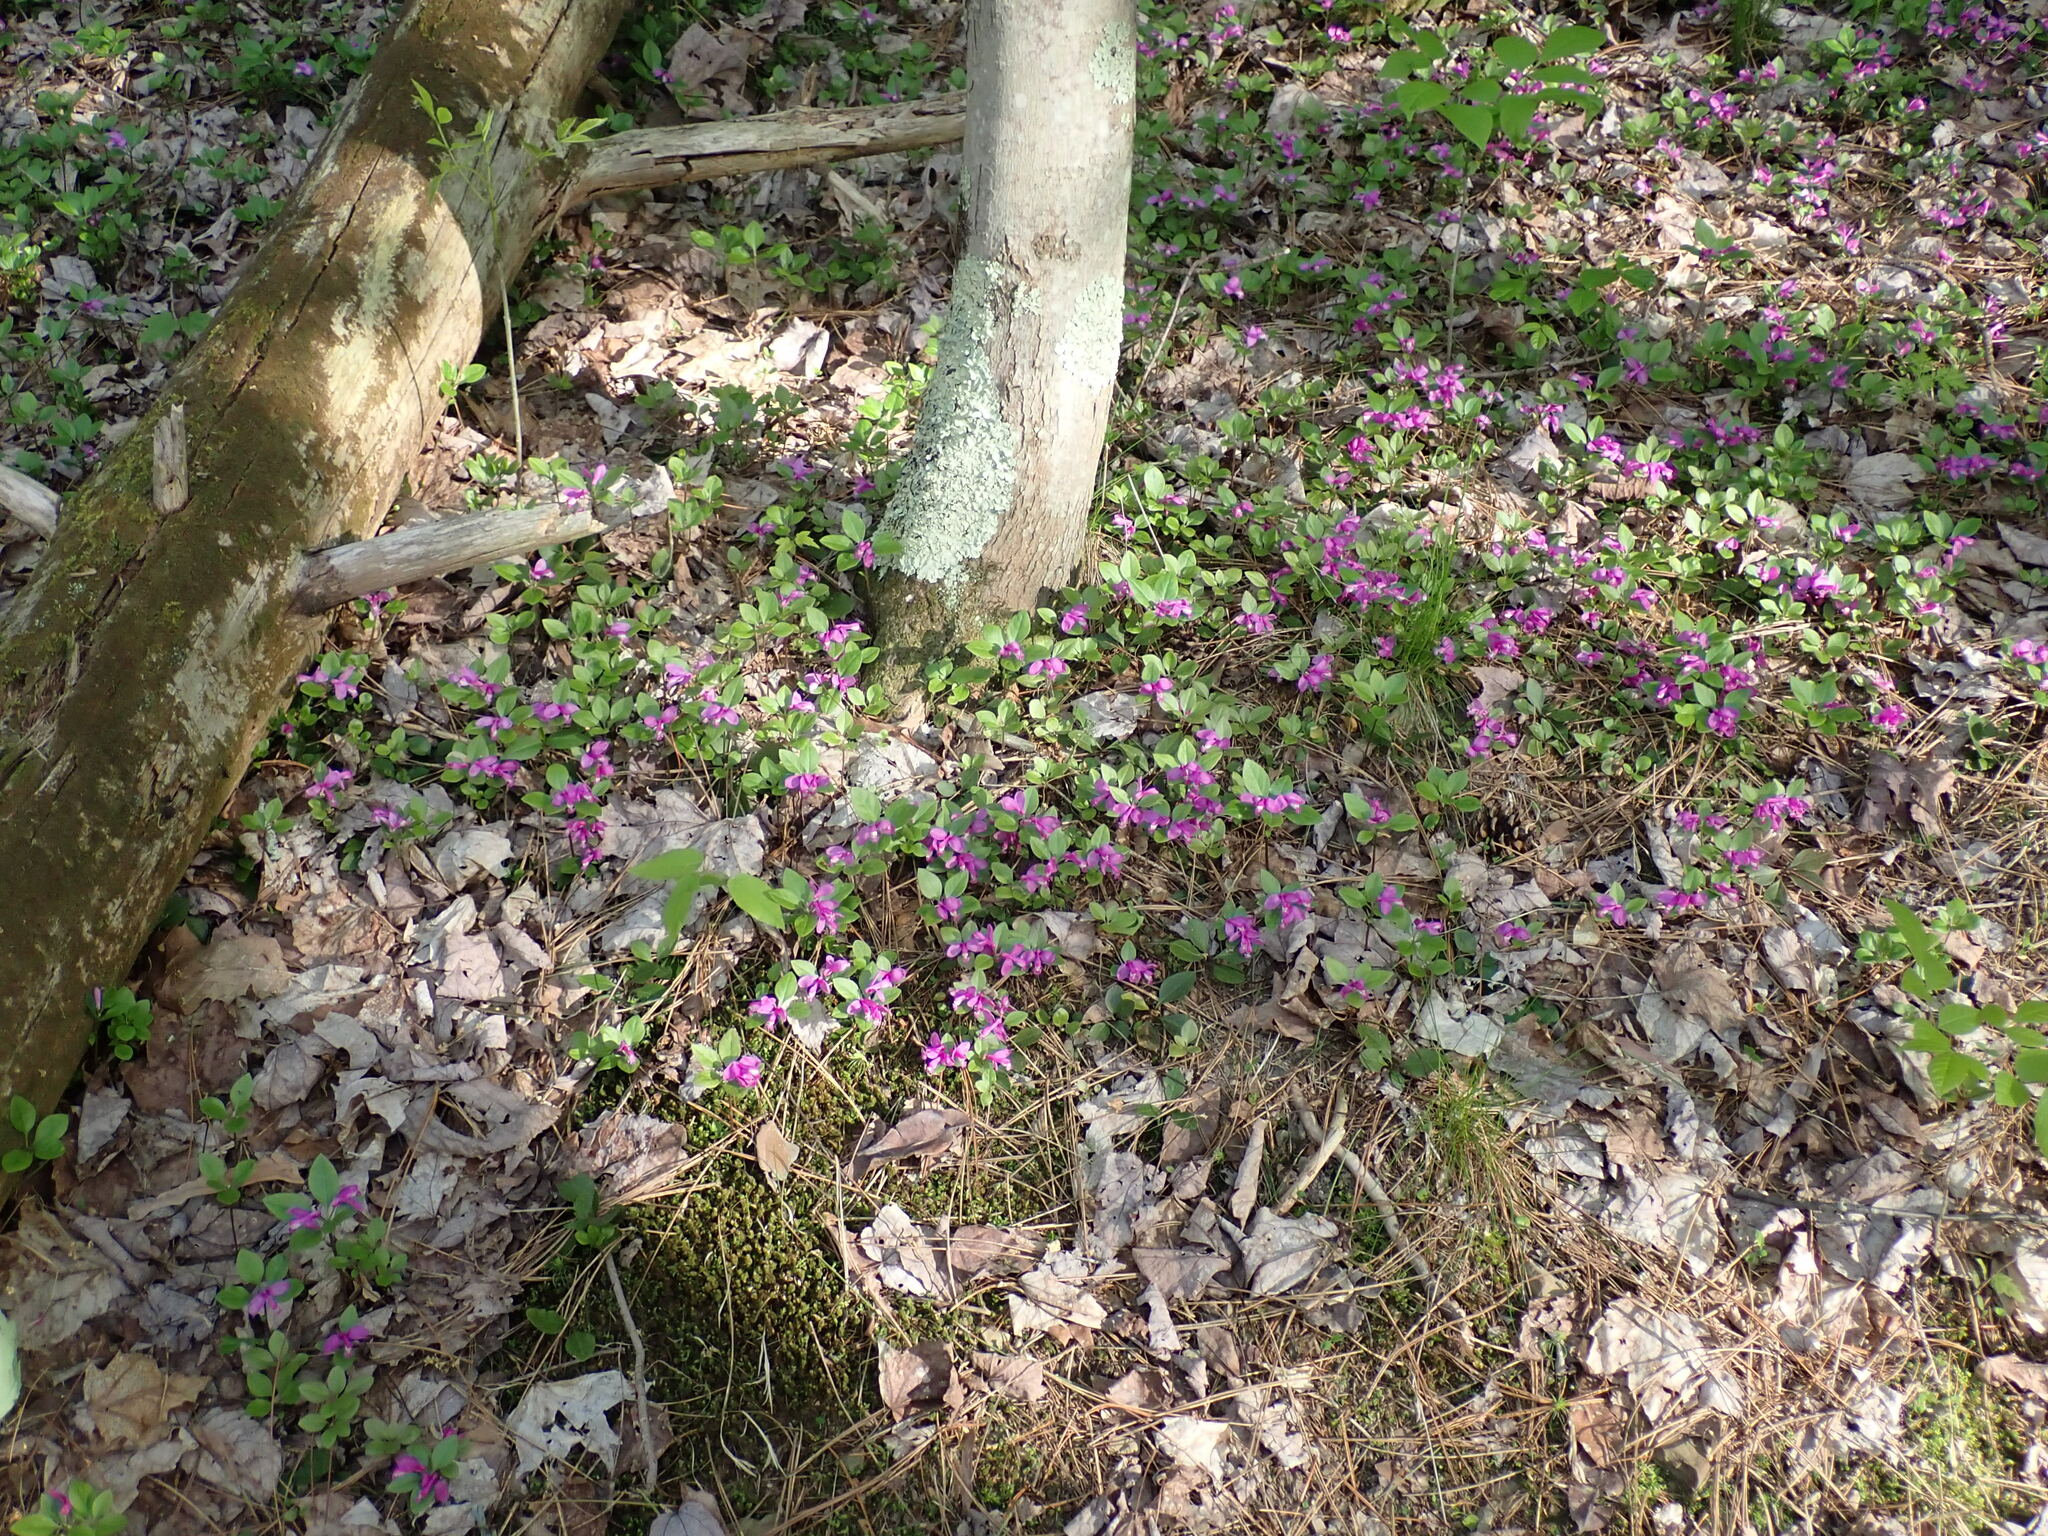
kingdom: Plantae
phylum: Tracheophyta
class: Magnoliopsida
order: Fabales
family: Polygalaceae
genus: Polygaloides
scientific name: Polygaloides paucifolia
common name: Bird-on-the-wing
